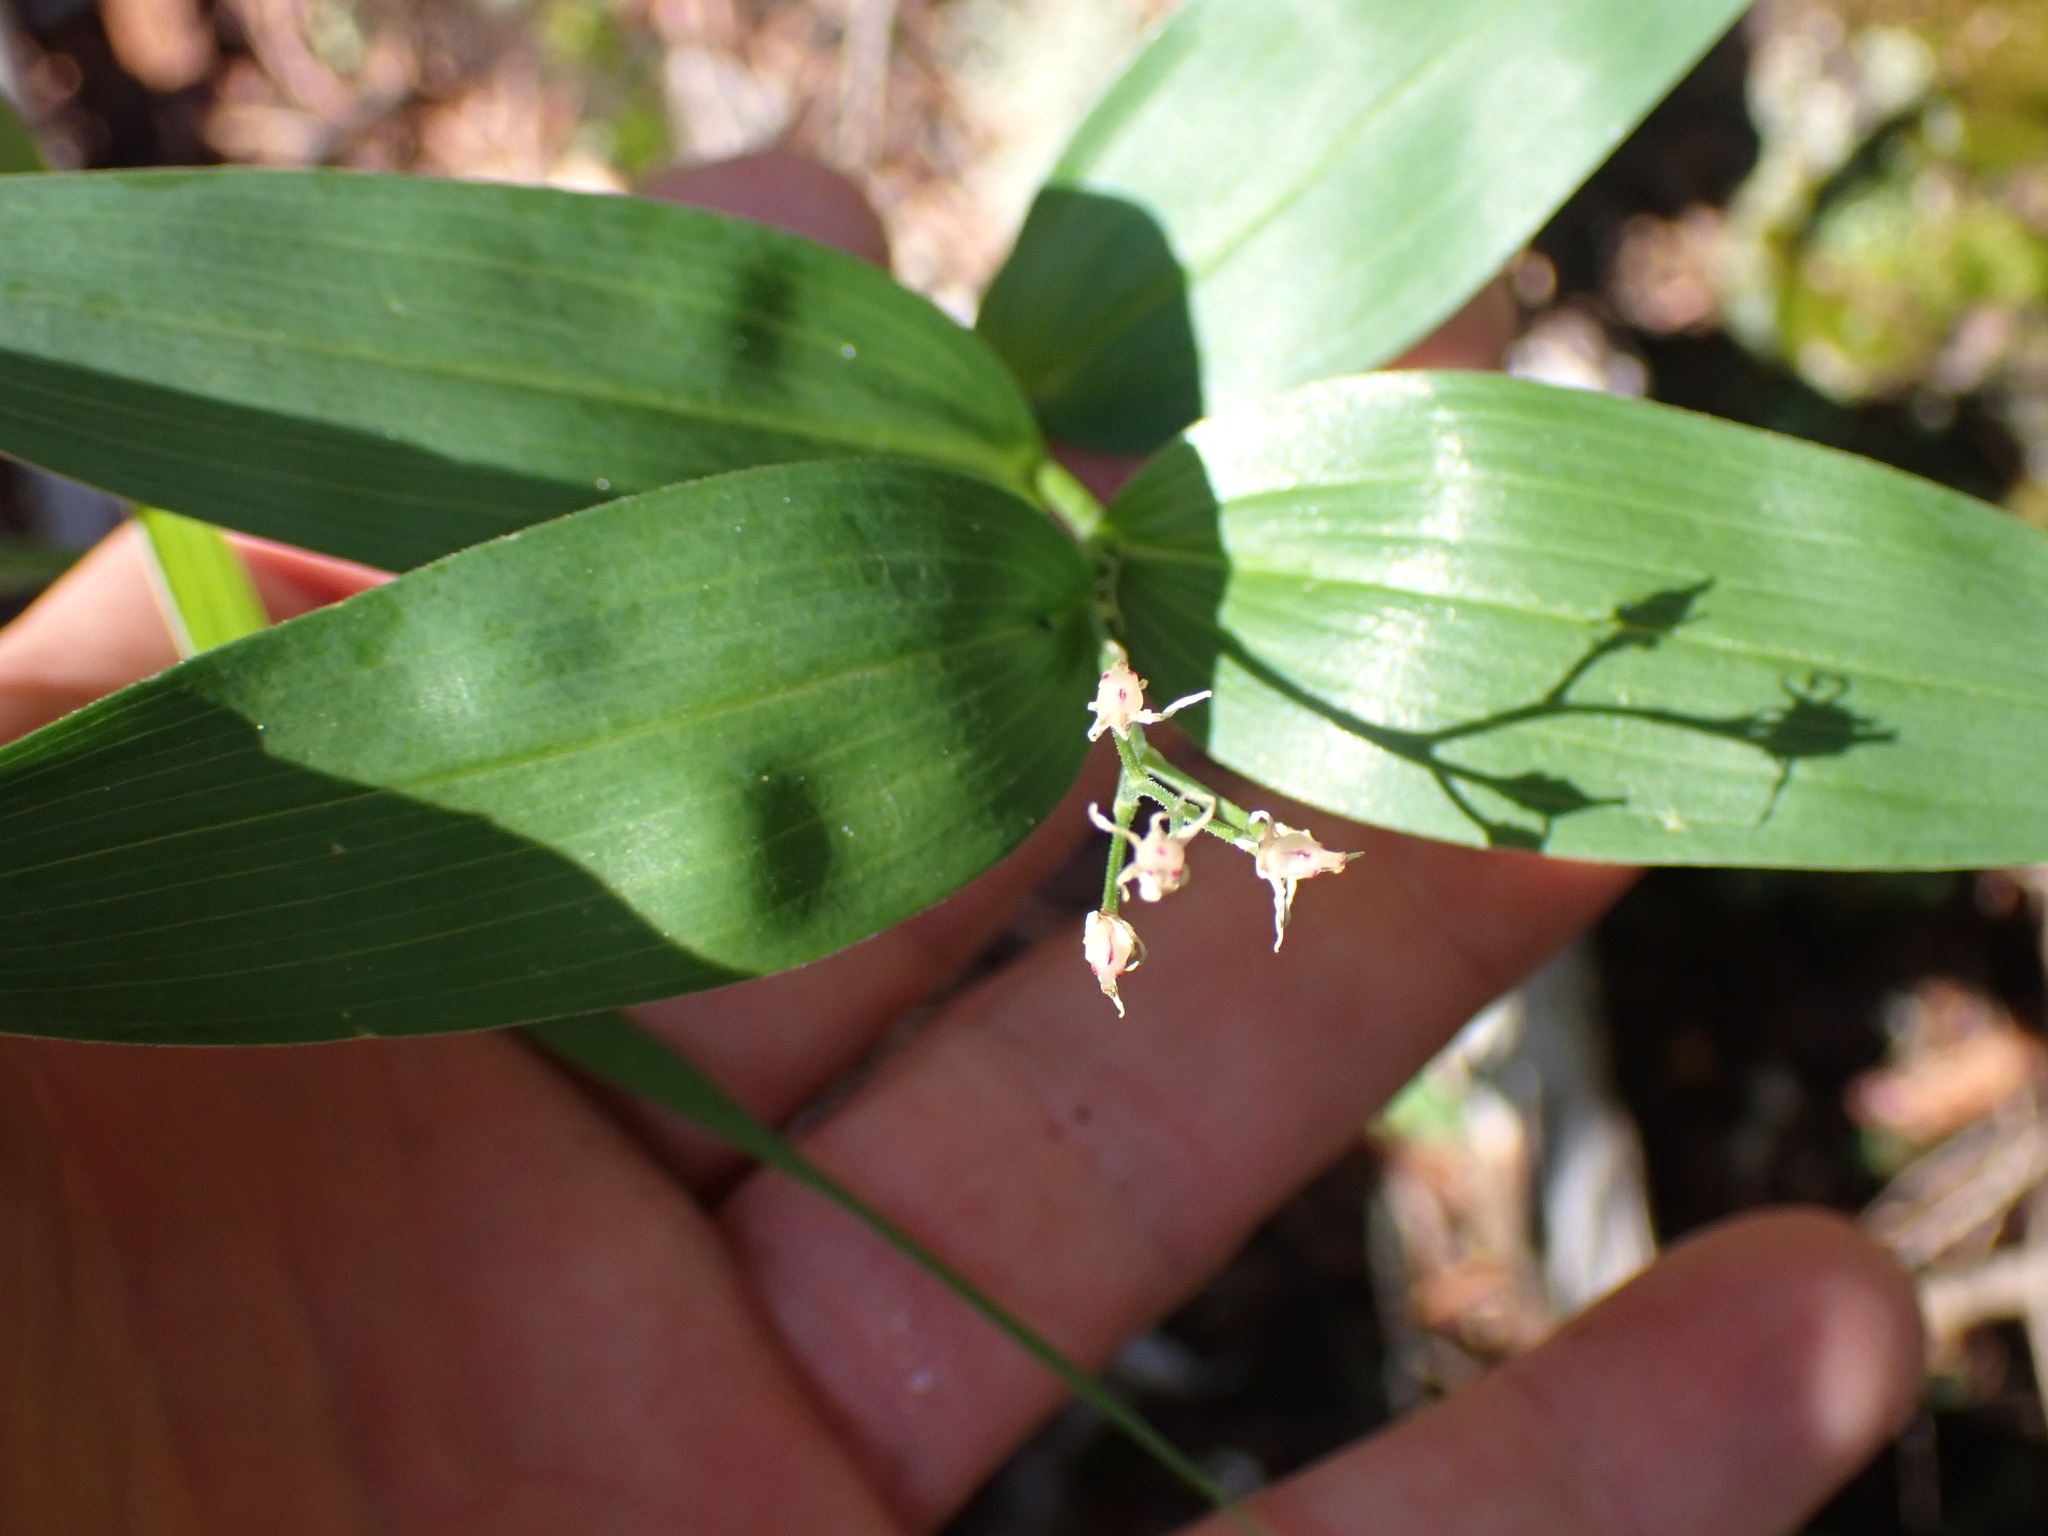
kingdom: Plantae
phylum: Tracheophyta
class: Liliopsida
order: Asparagales
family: Asparagaceae
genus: Maianthemum
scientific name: Maianthemum stellatum
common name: Little false solomon's seal
